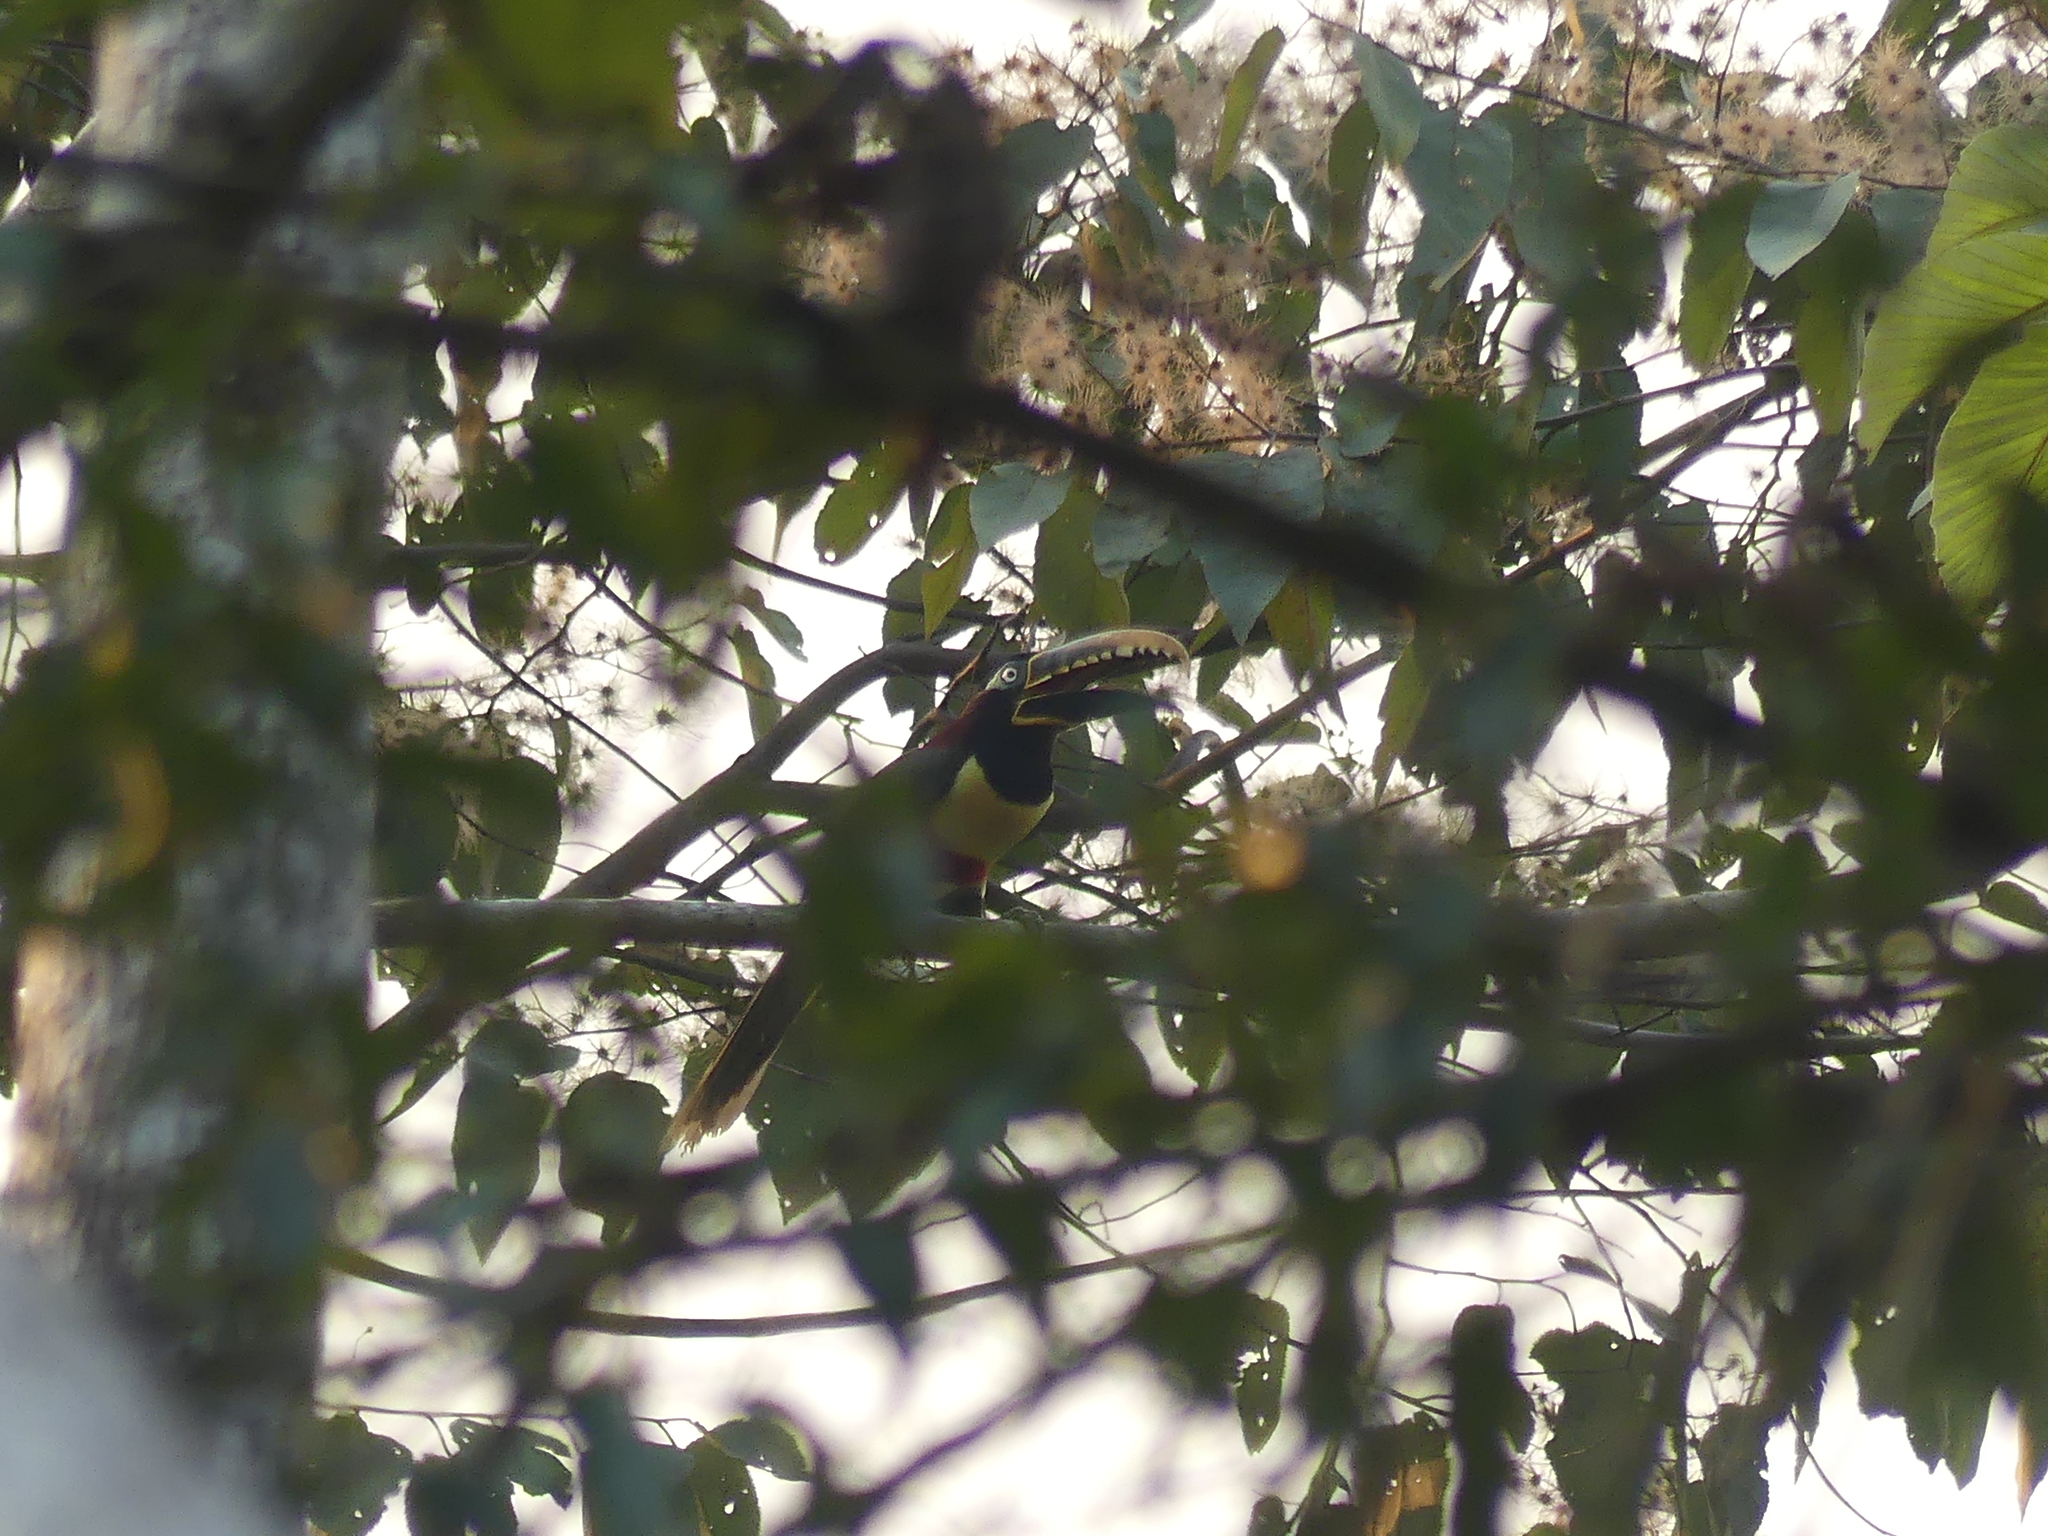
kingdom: Animalia
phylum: Chordata
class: Aves
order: Piciformes
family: Ramphastidae
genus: Pteroglossus
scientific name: Pteroglossus castanotis
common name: Chestnut-eared aracari
